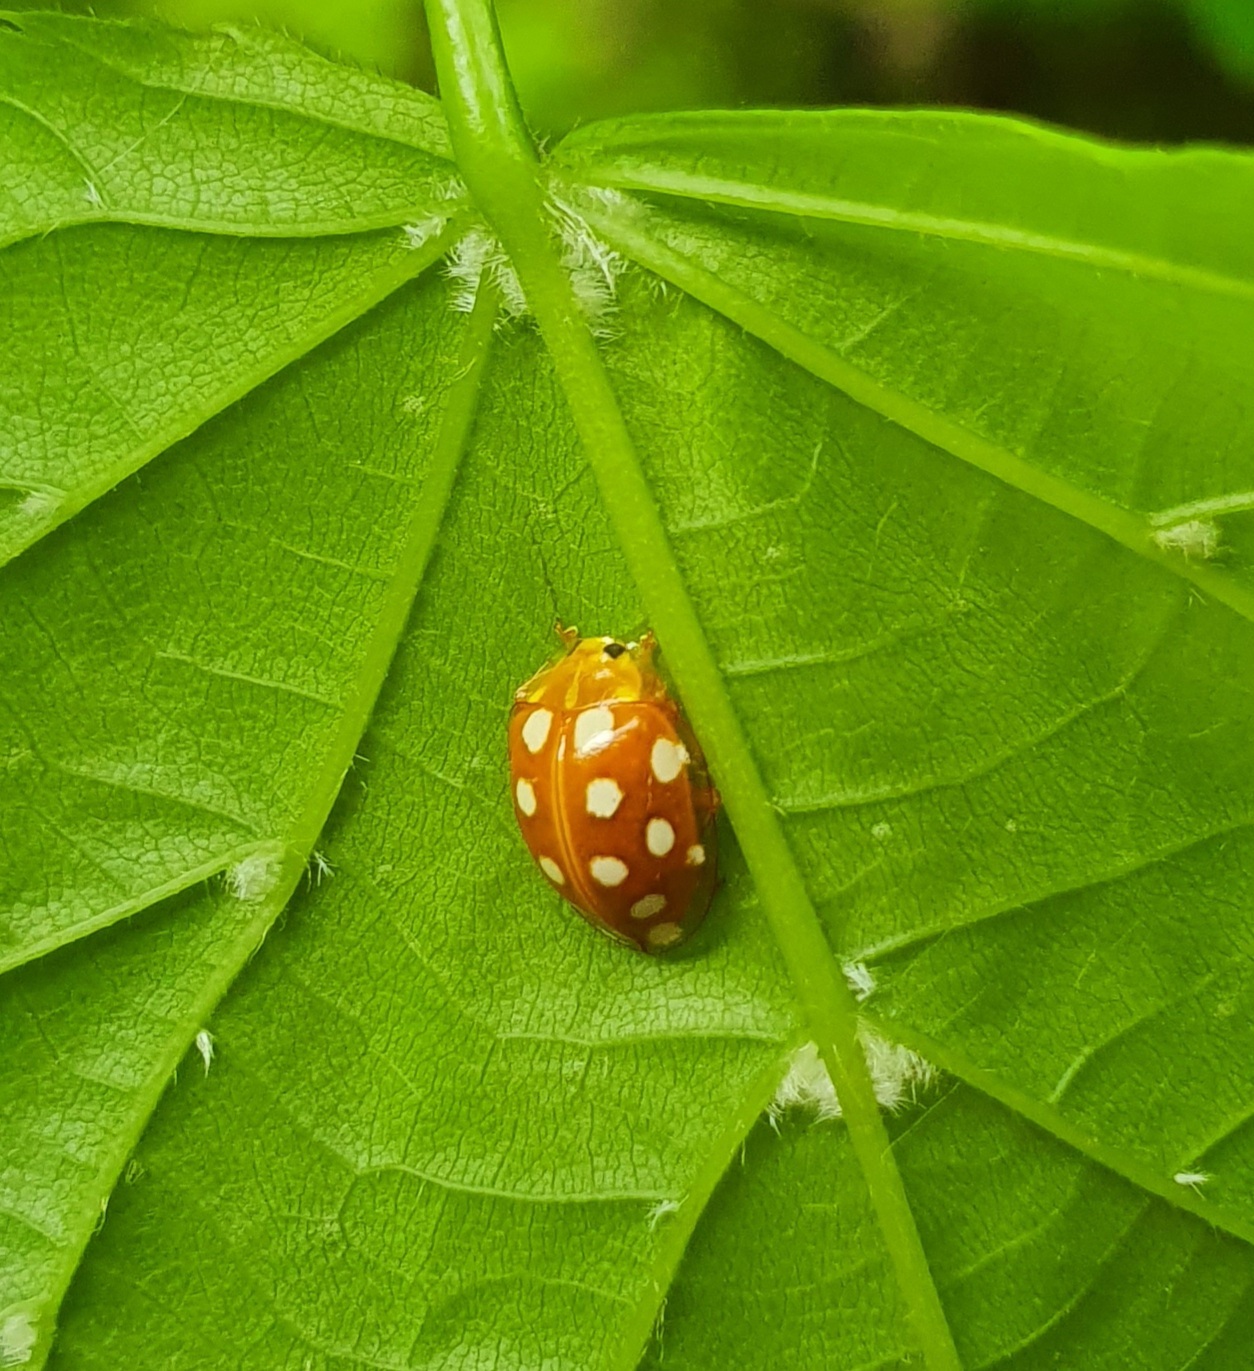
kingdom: Animalia
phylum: Arthropoda
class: Insecta
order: Coleoptera
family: Coccinellidae
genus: Halyzia
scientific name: Halyzia sedecimguttata
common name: Orange ladybird
